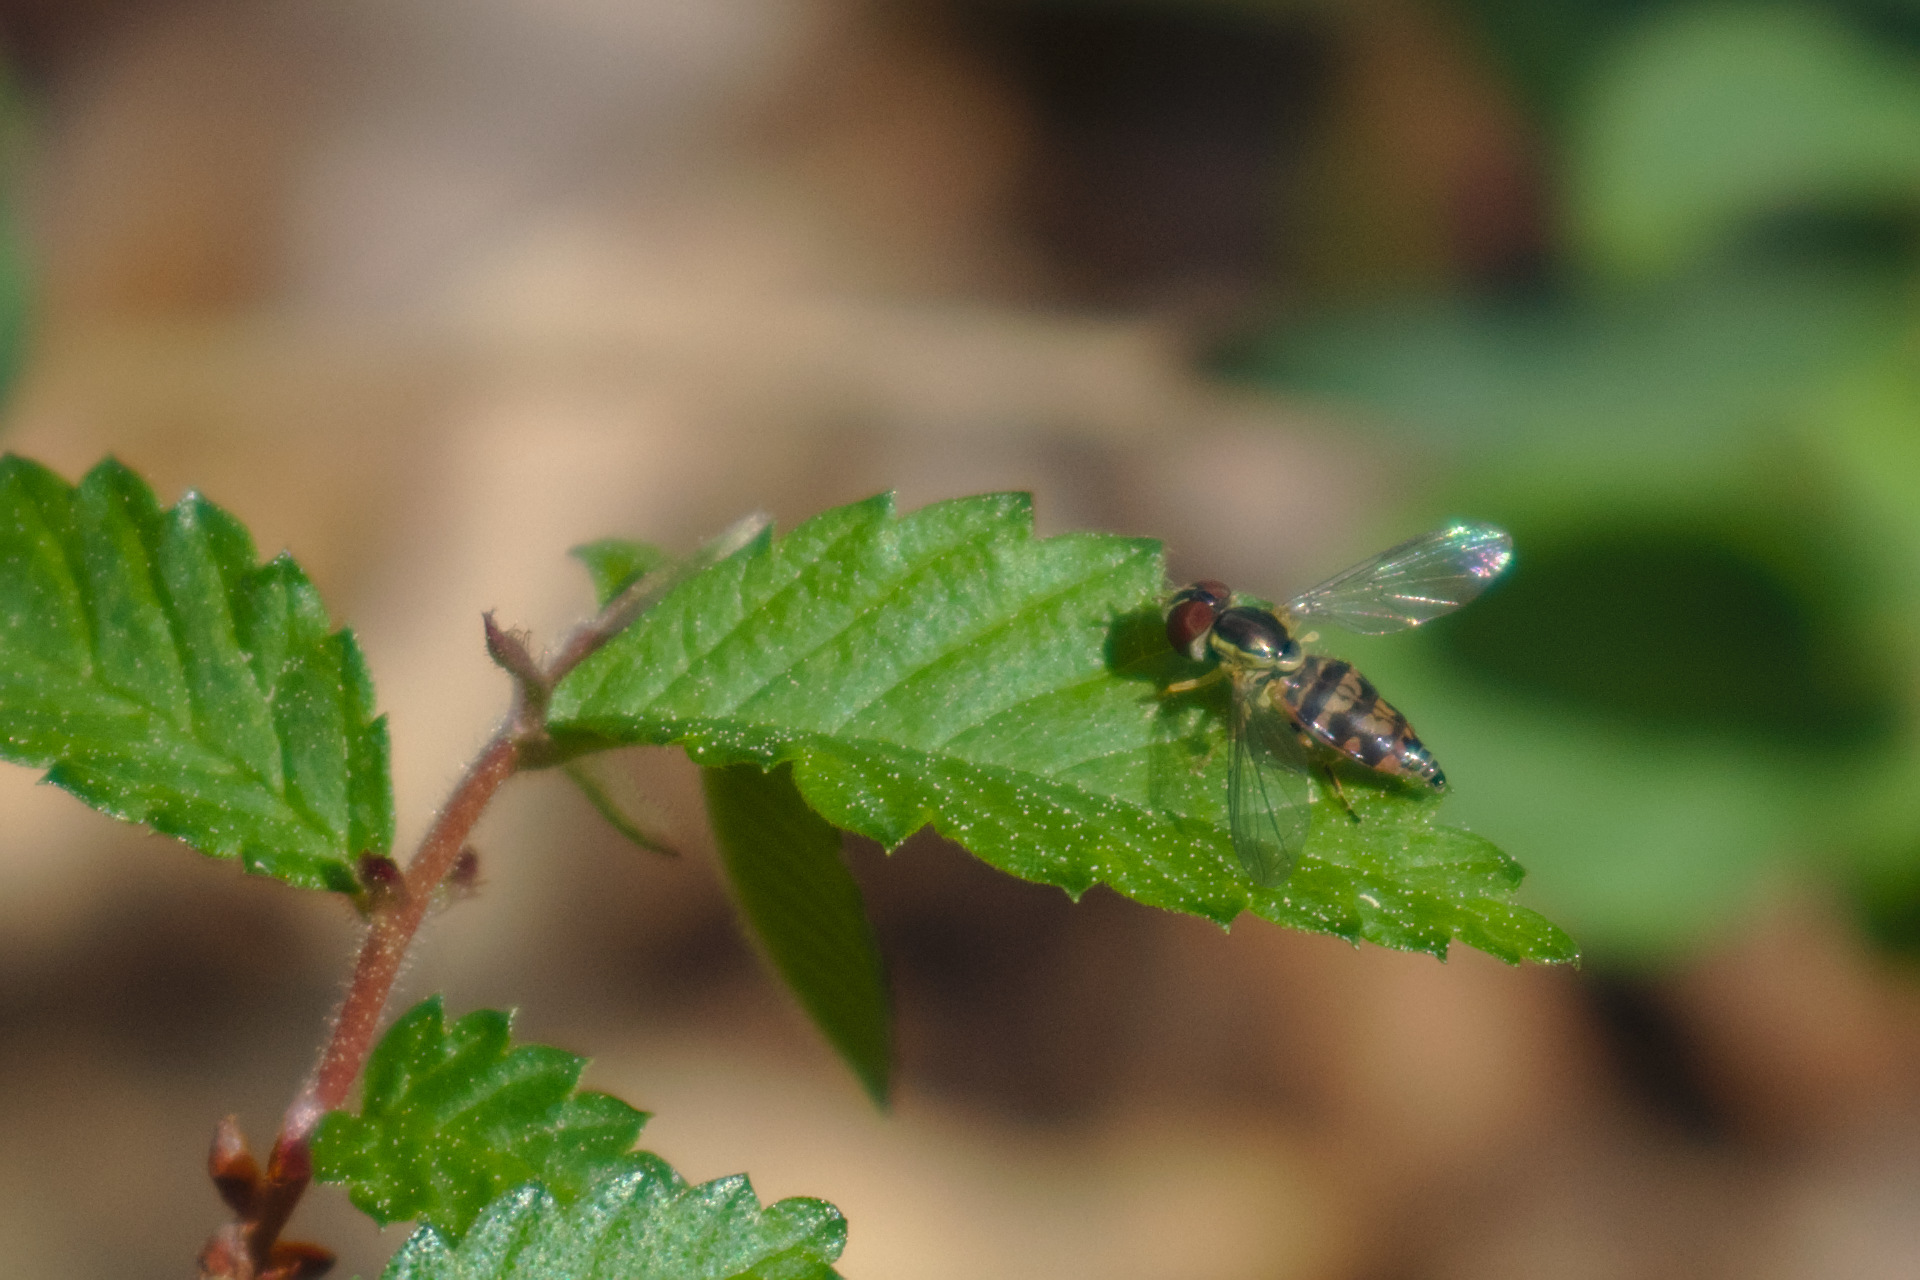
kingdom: Animalia
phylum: Arthropoda
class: Insecta
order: Diptera
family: Syrphidae
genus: Toxomerus
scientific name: Toxomerus geminatus
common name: Eastern calligrapher
